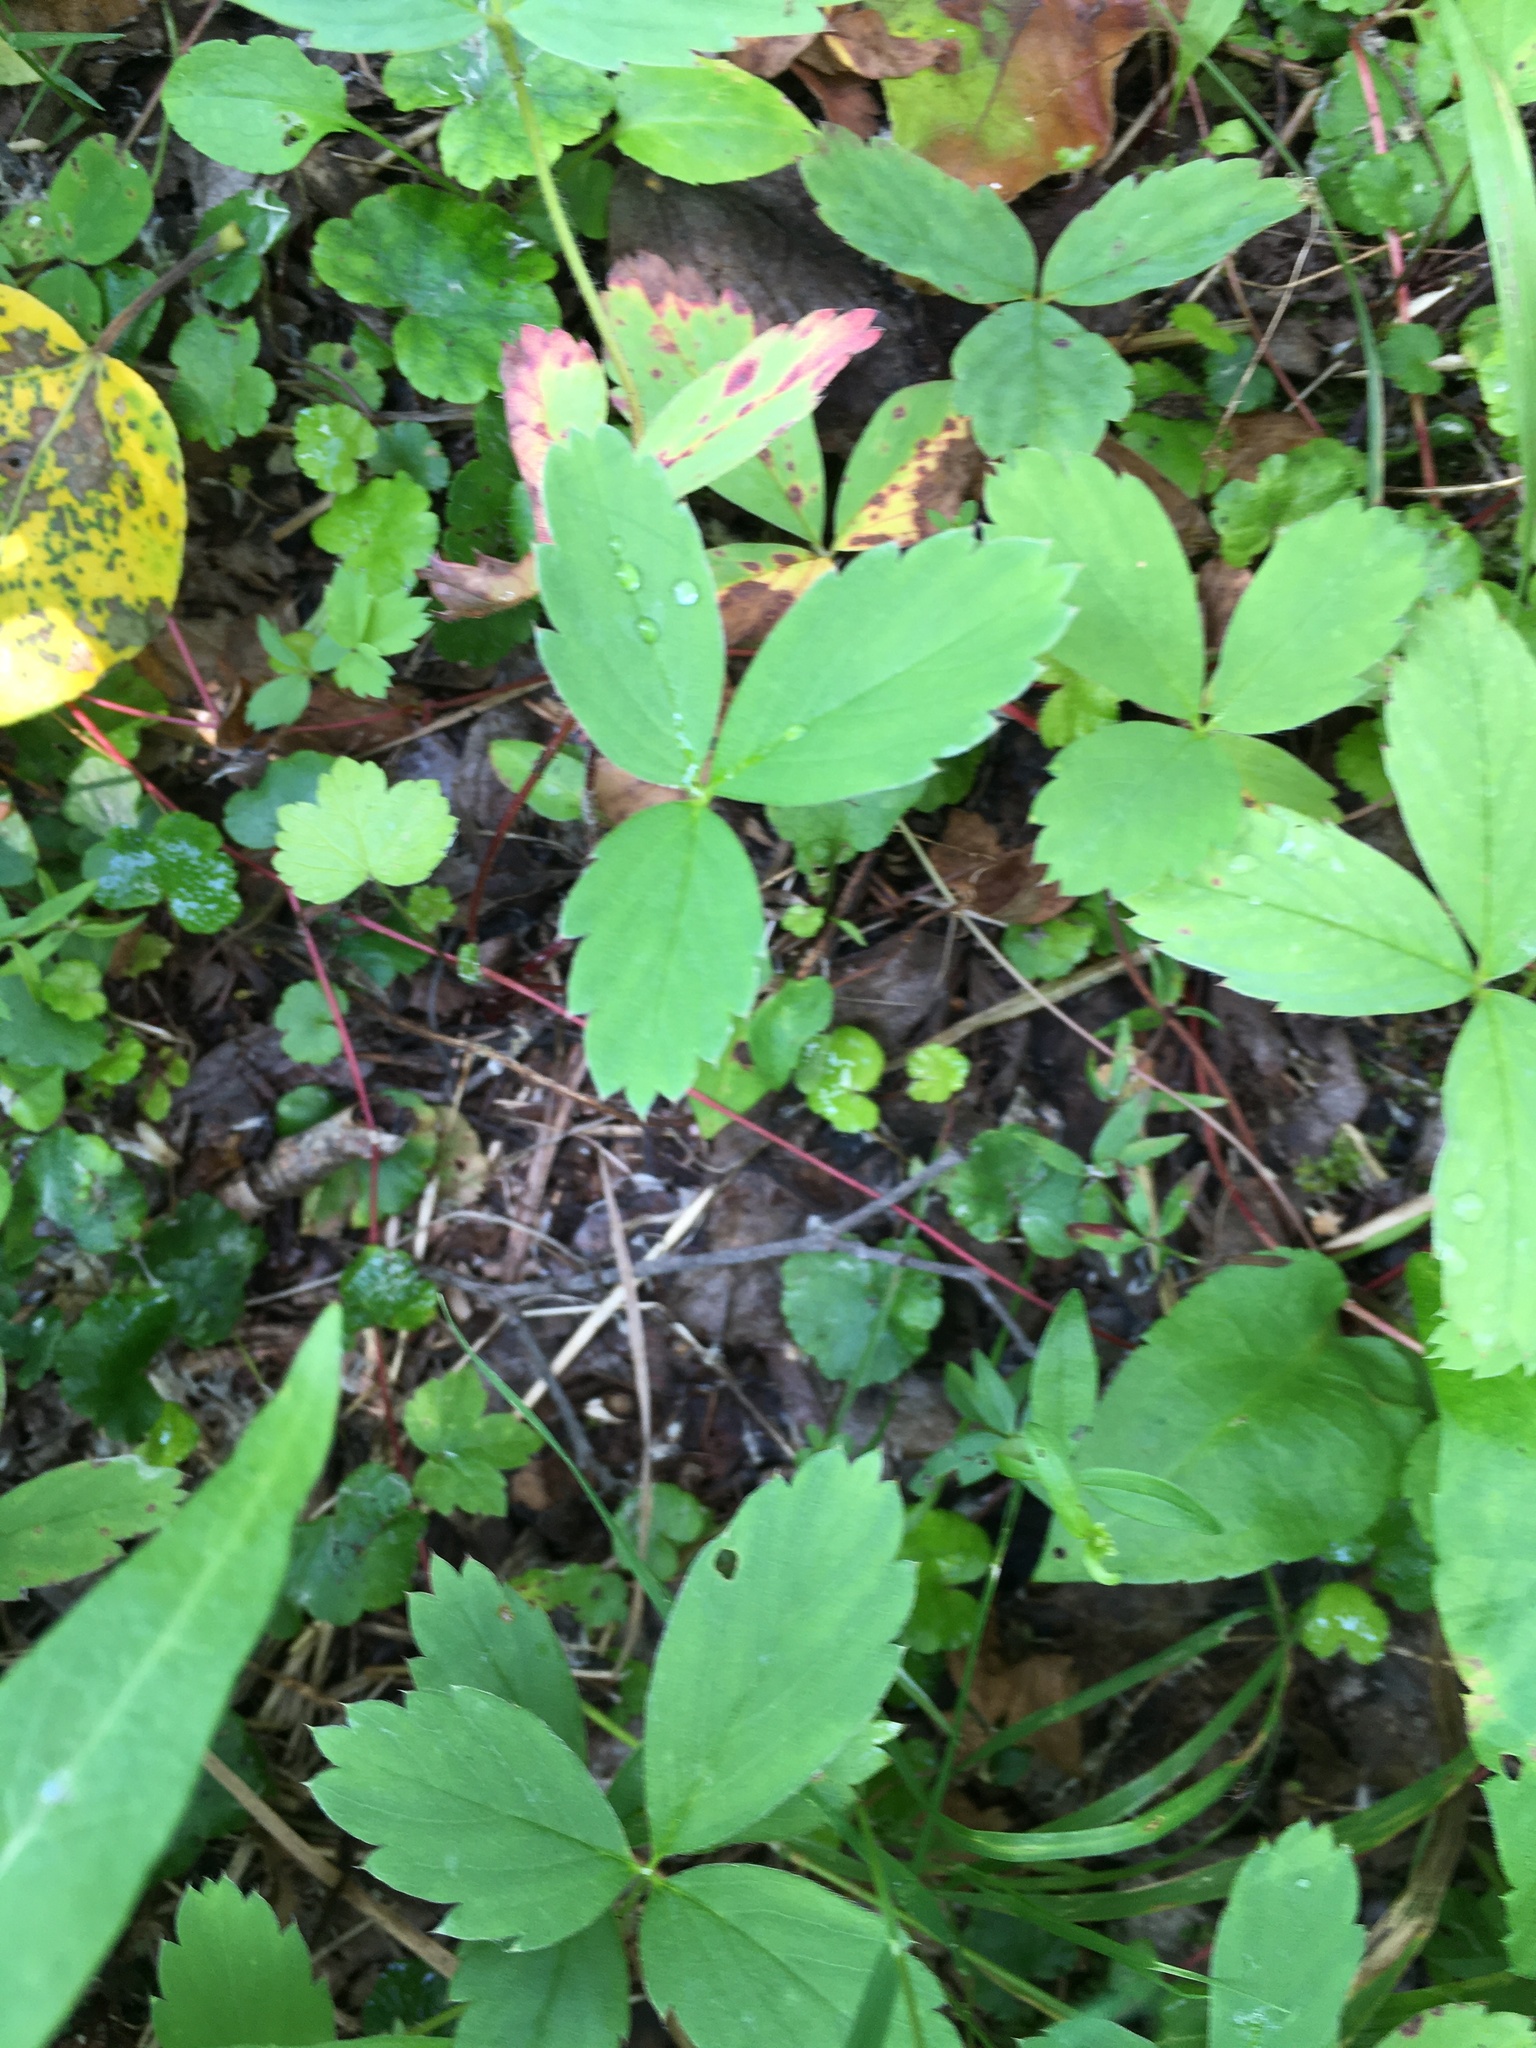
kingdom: Plantae
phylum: Tracheophyta
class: Magnoliopsida
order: Rosales
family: Rosaceae
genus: Fragaria
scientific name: Fragaria virginiana
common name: Thickleaved wild strawberry
